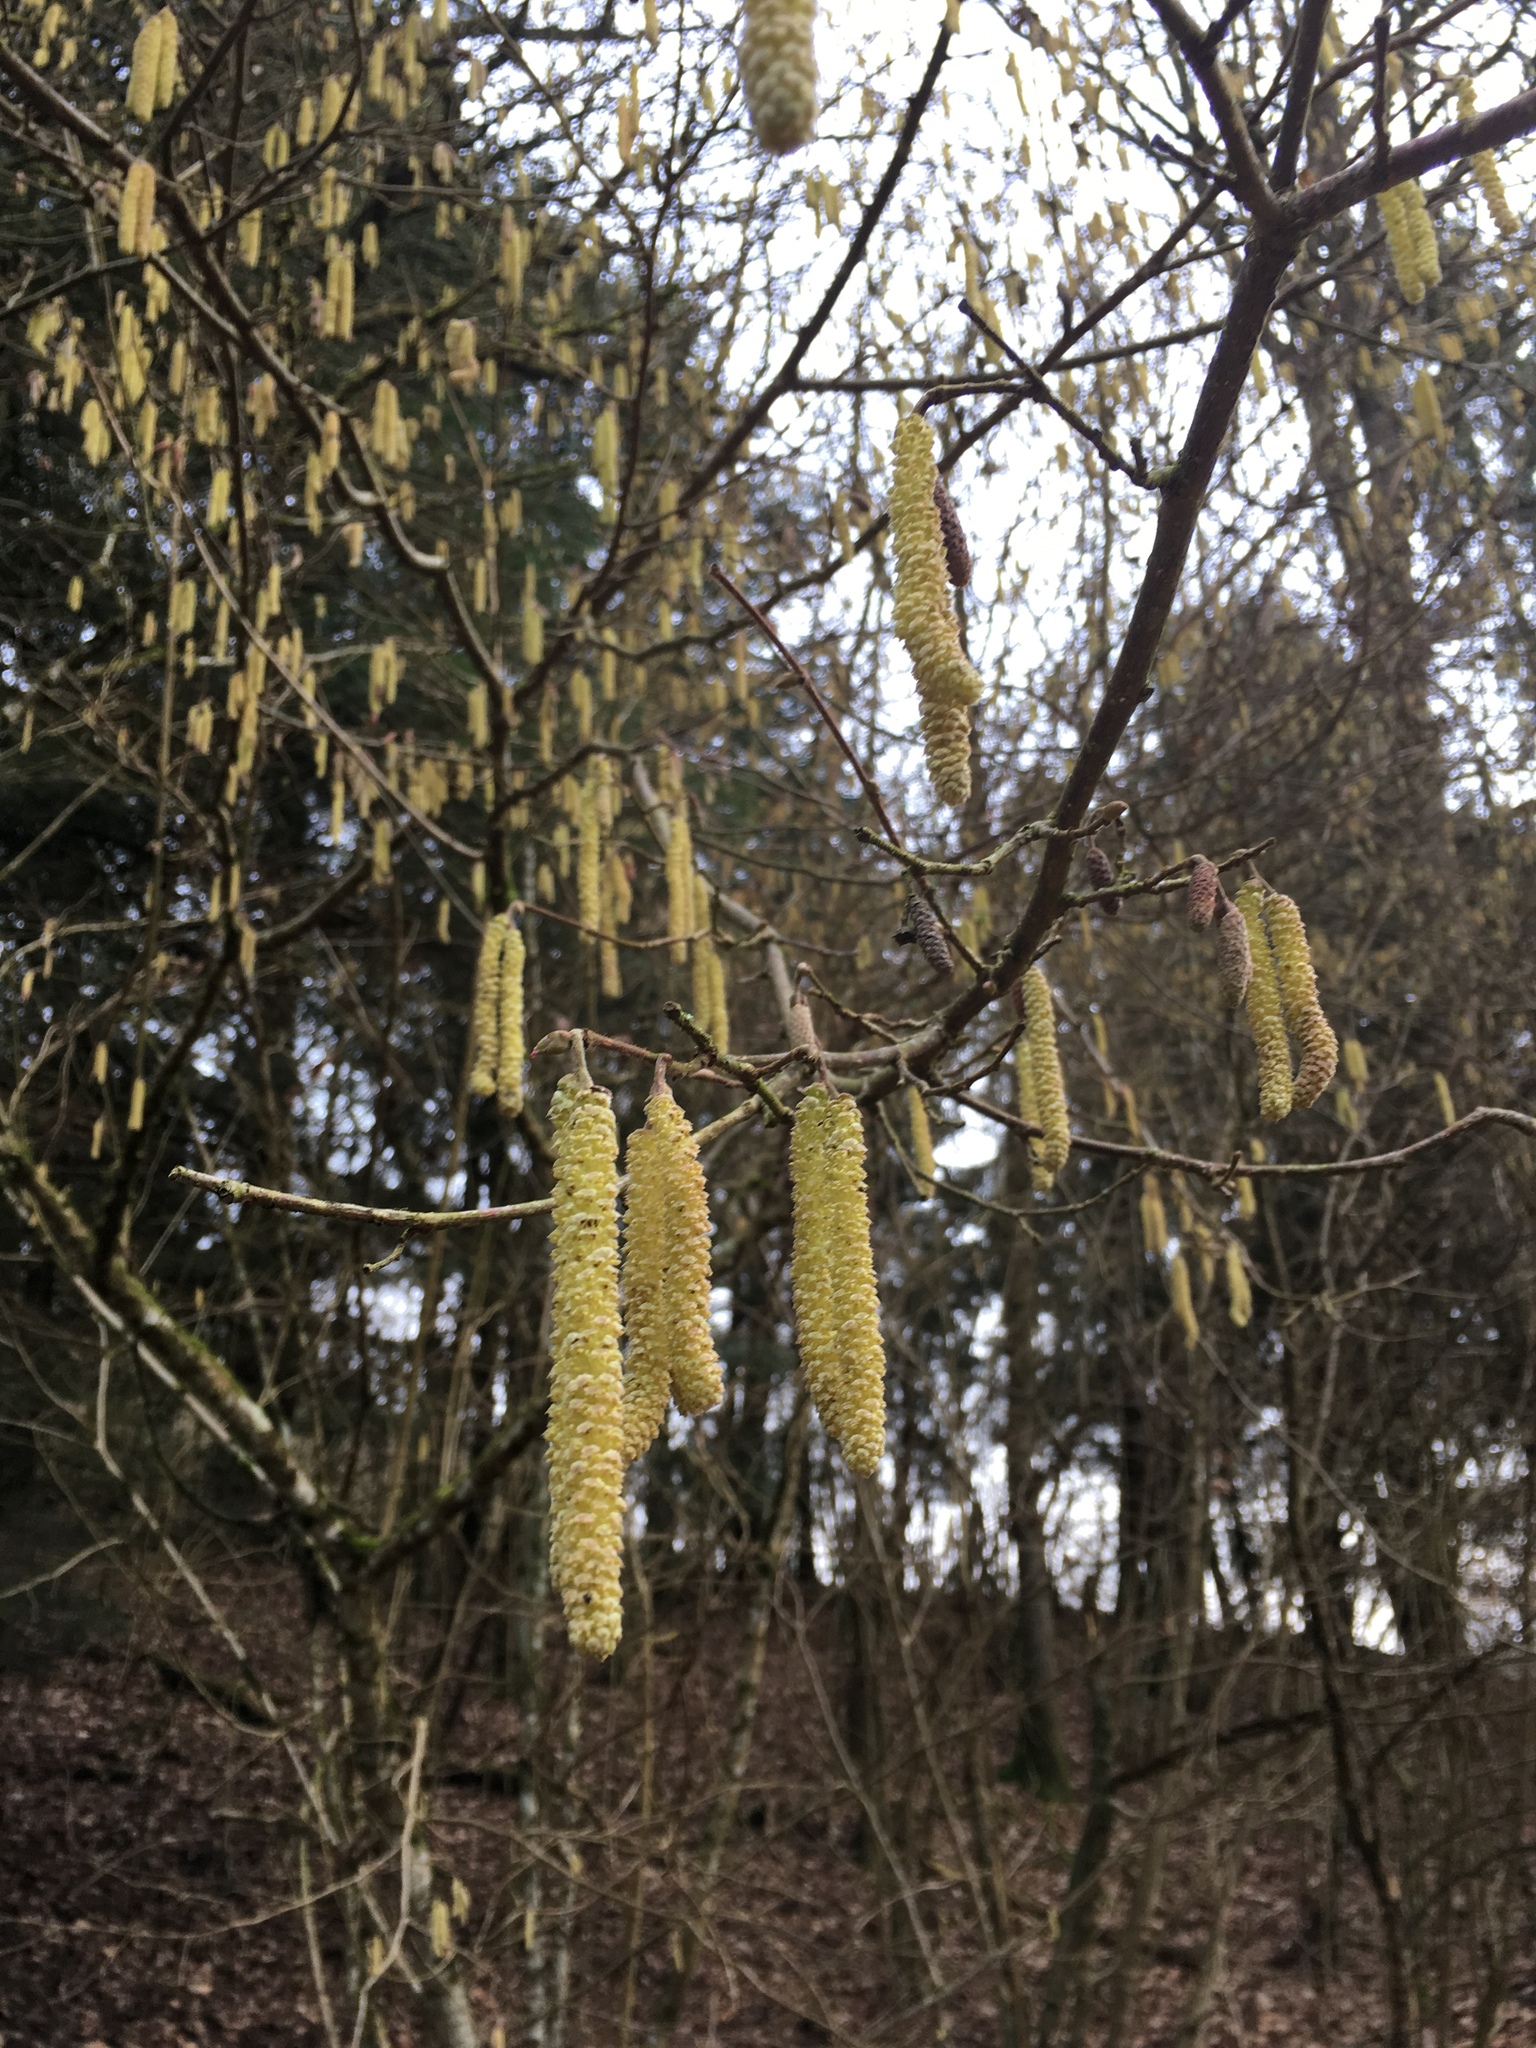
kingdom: Plantae
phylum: Tracheophyta
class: Magnoliopsida
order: Fagales
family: Betulaceae
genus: Corylus
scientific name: Corylus avellana
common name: European hazel
